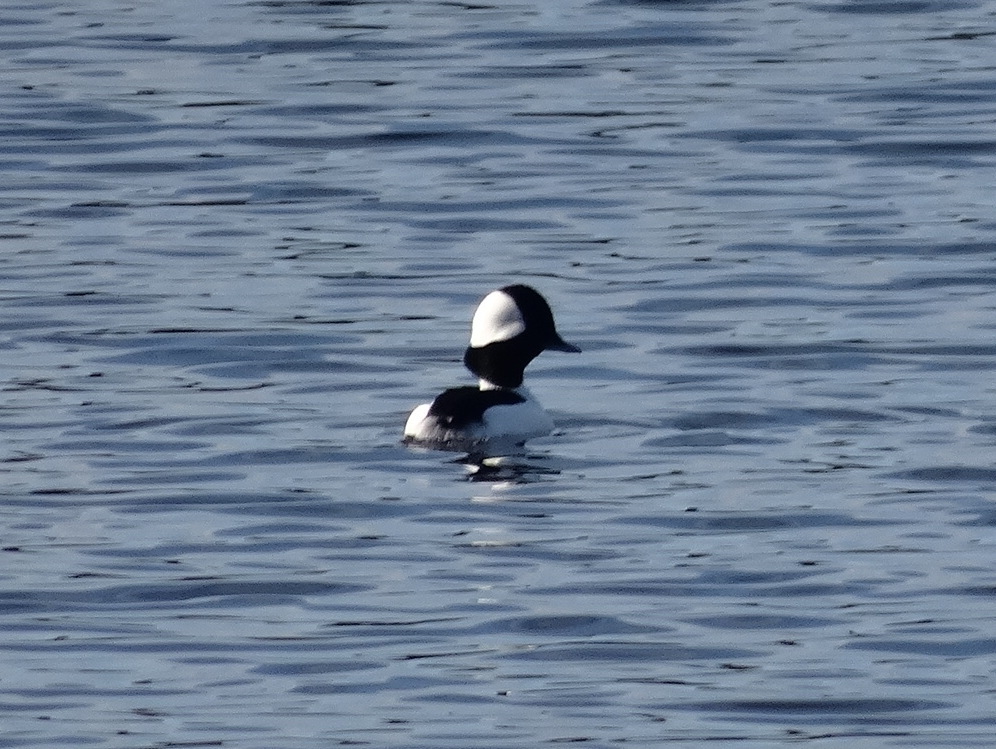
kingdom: Animalia
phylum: Chordata
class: Aves
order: Anseriformes
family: Anatidae
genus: Bucephala
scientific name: Bucephala albeola
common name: Bufflehead
